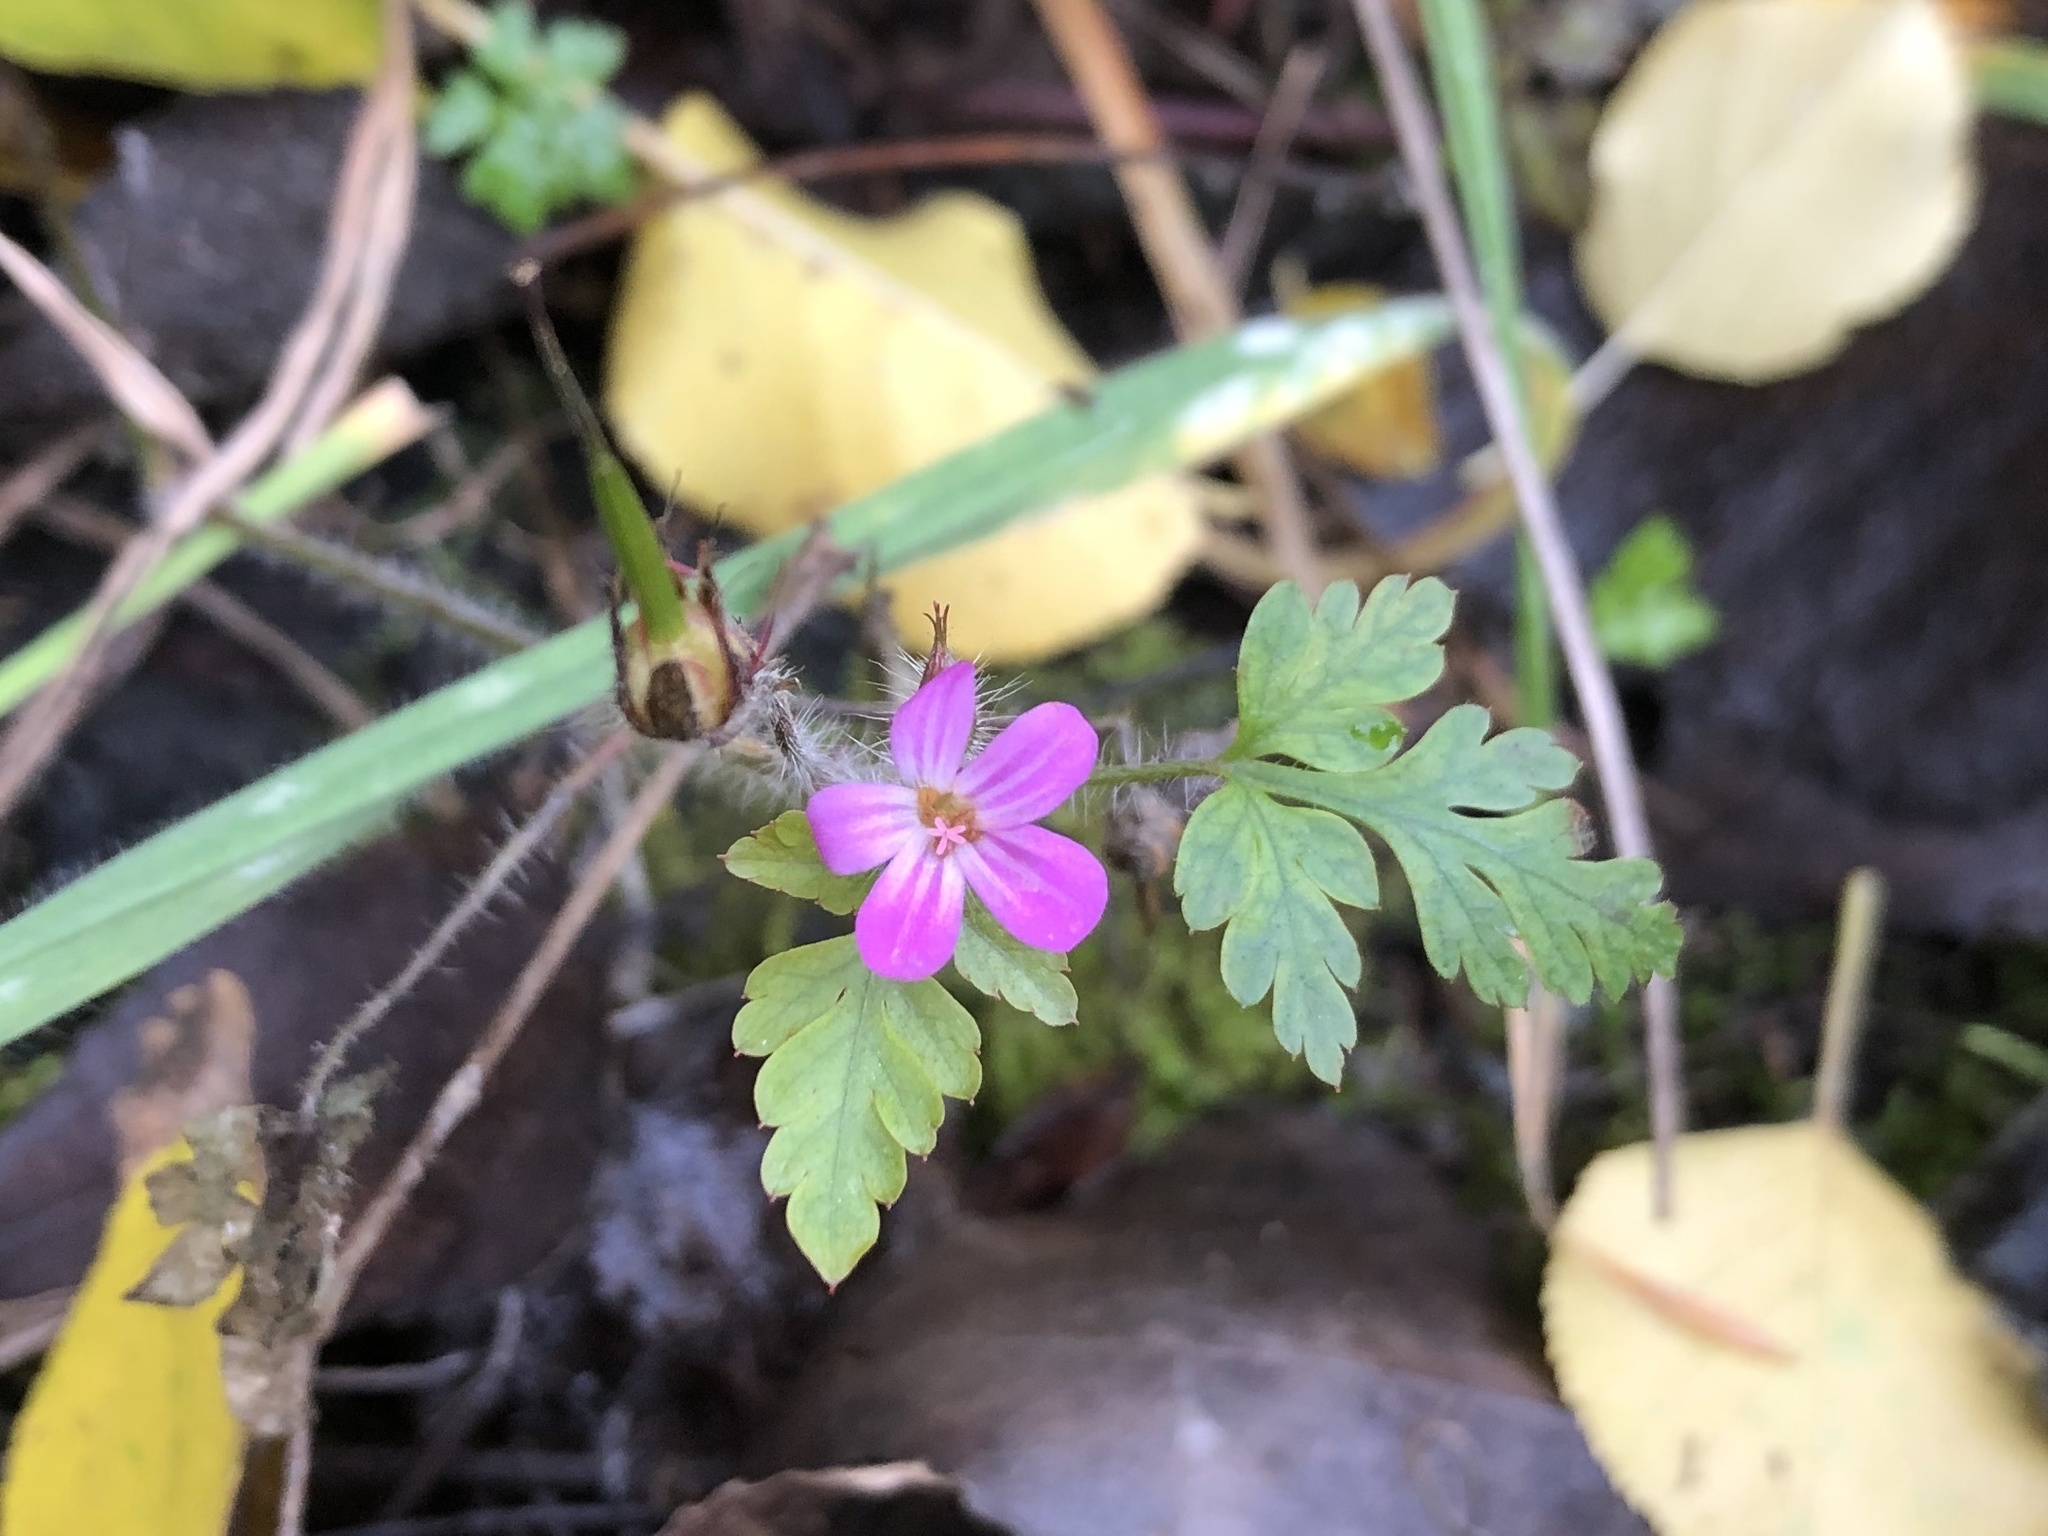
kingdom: Plantae
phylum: Tracheophyta
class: Magnoliopsida
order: Geraniales
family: Geraniaceae
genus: Geranium
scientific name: Geranium robertianum
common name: Herb-robert
